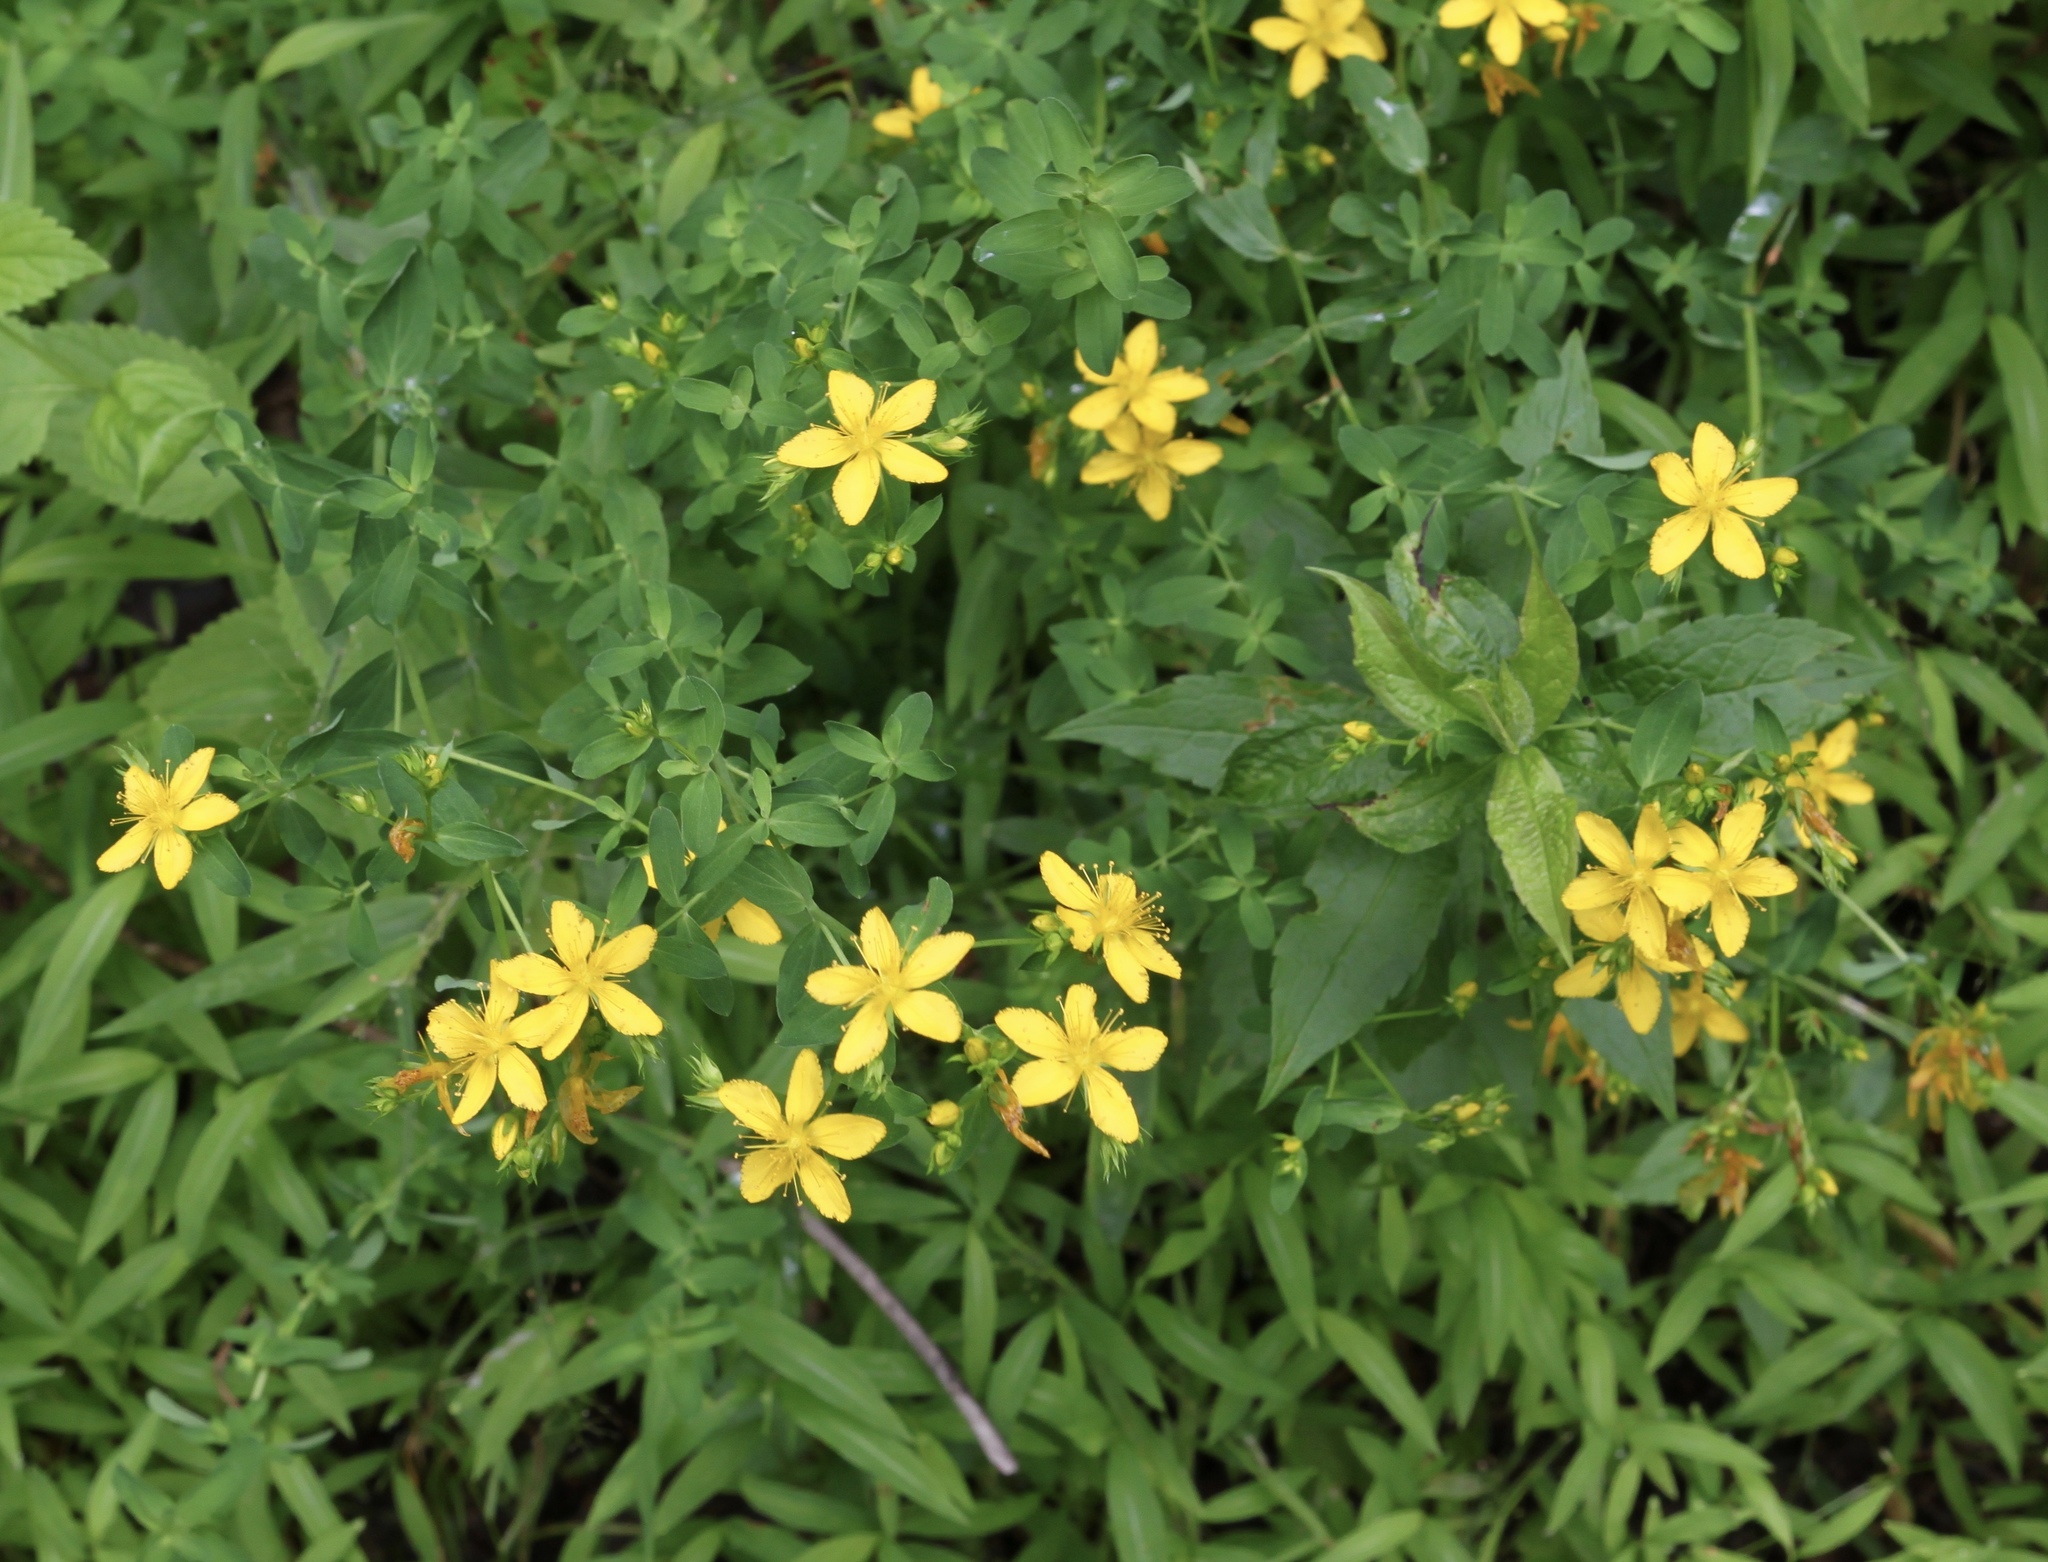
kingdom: Plantae
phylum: Tracheophyta
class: Magnoliopsida
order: Malpighiales
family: Hypericaceae
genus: Hypericum
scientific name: Hypericum perforatum
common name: Common st. johnswort
